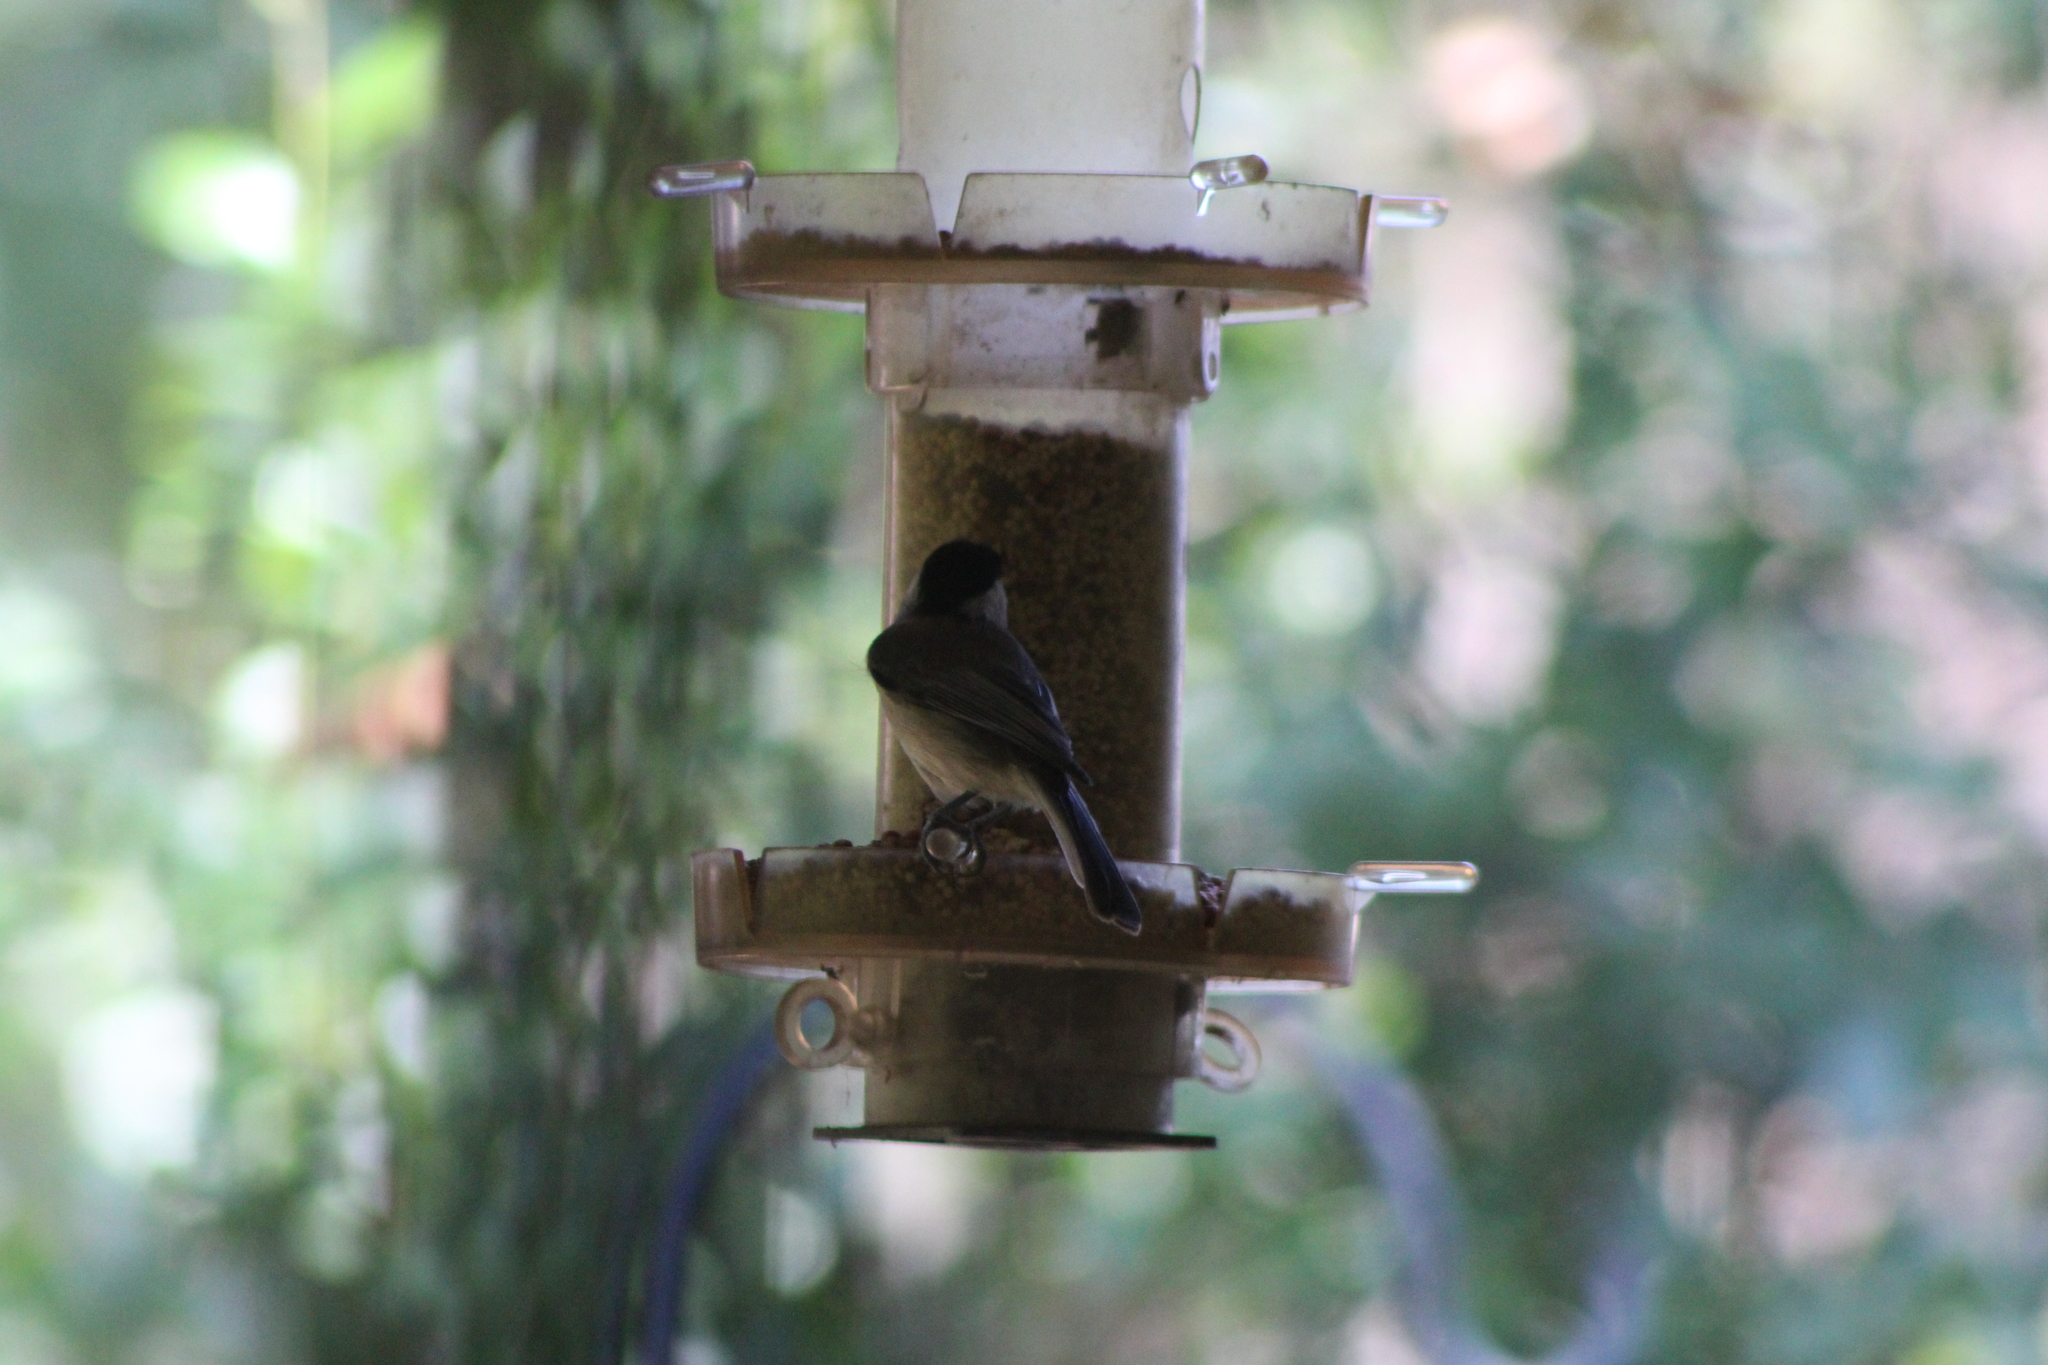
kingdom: Animalia
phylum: Chordata
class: Aves
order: Passeriformes
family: Paridae
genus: Poecile
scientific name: Poecile carolinensis
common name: Carolina chickadee
